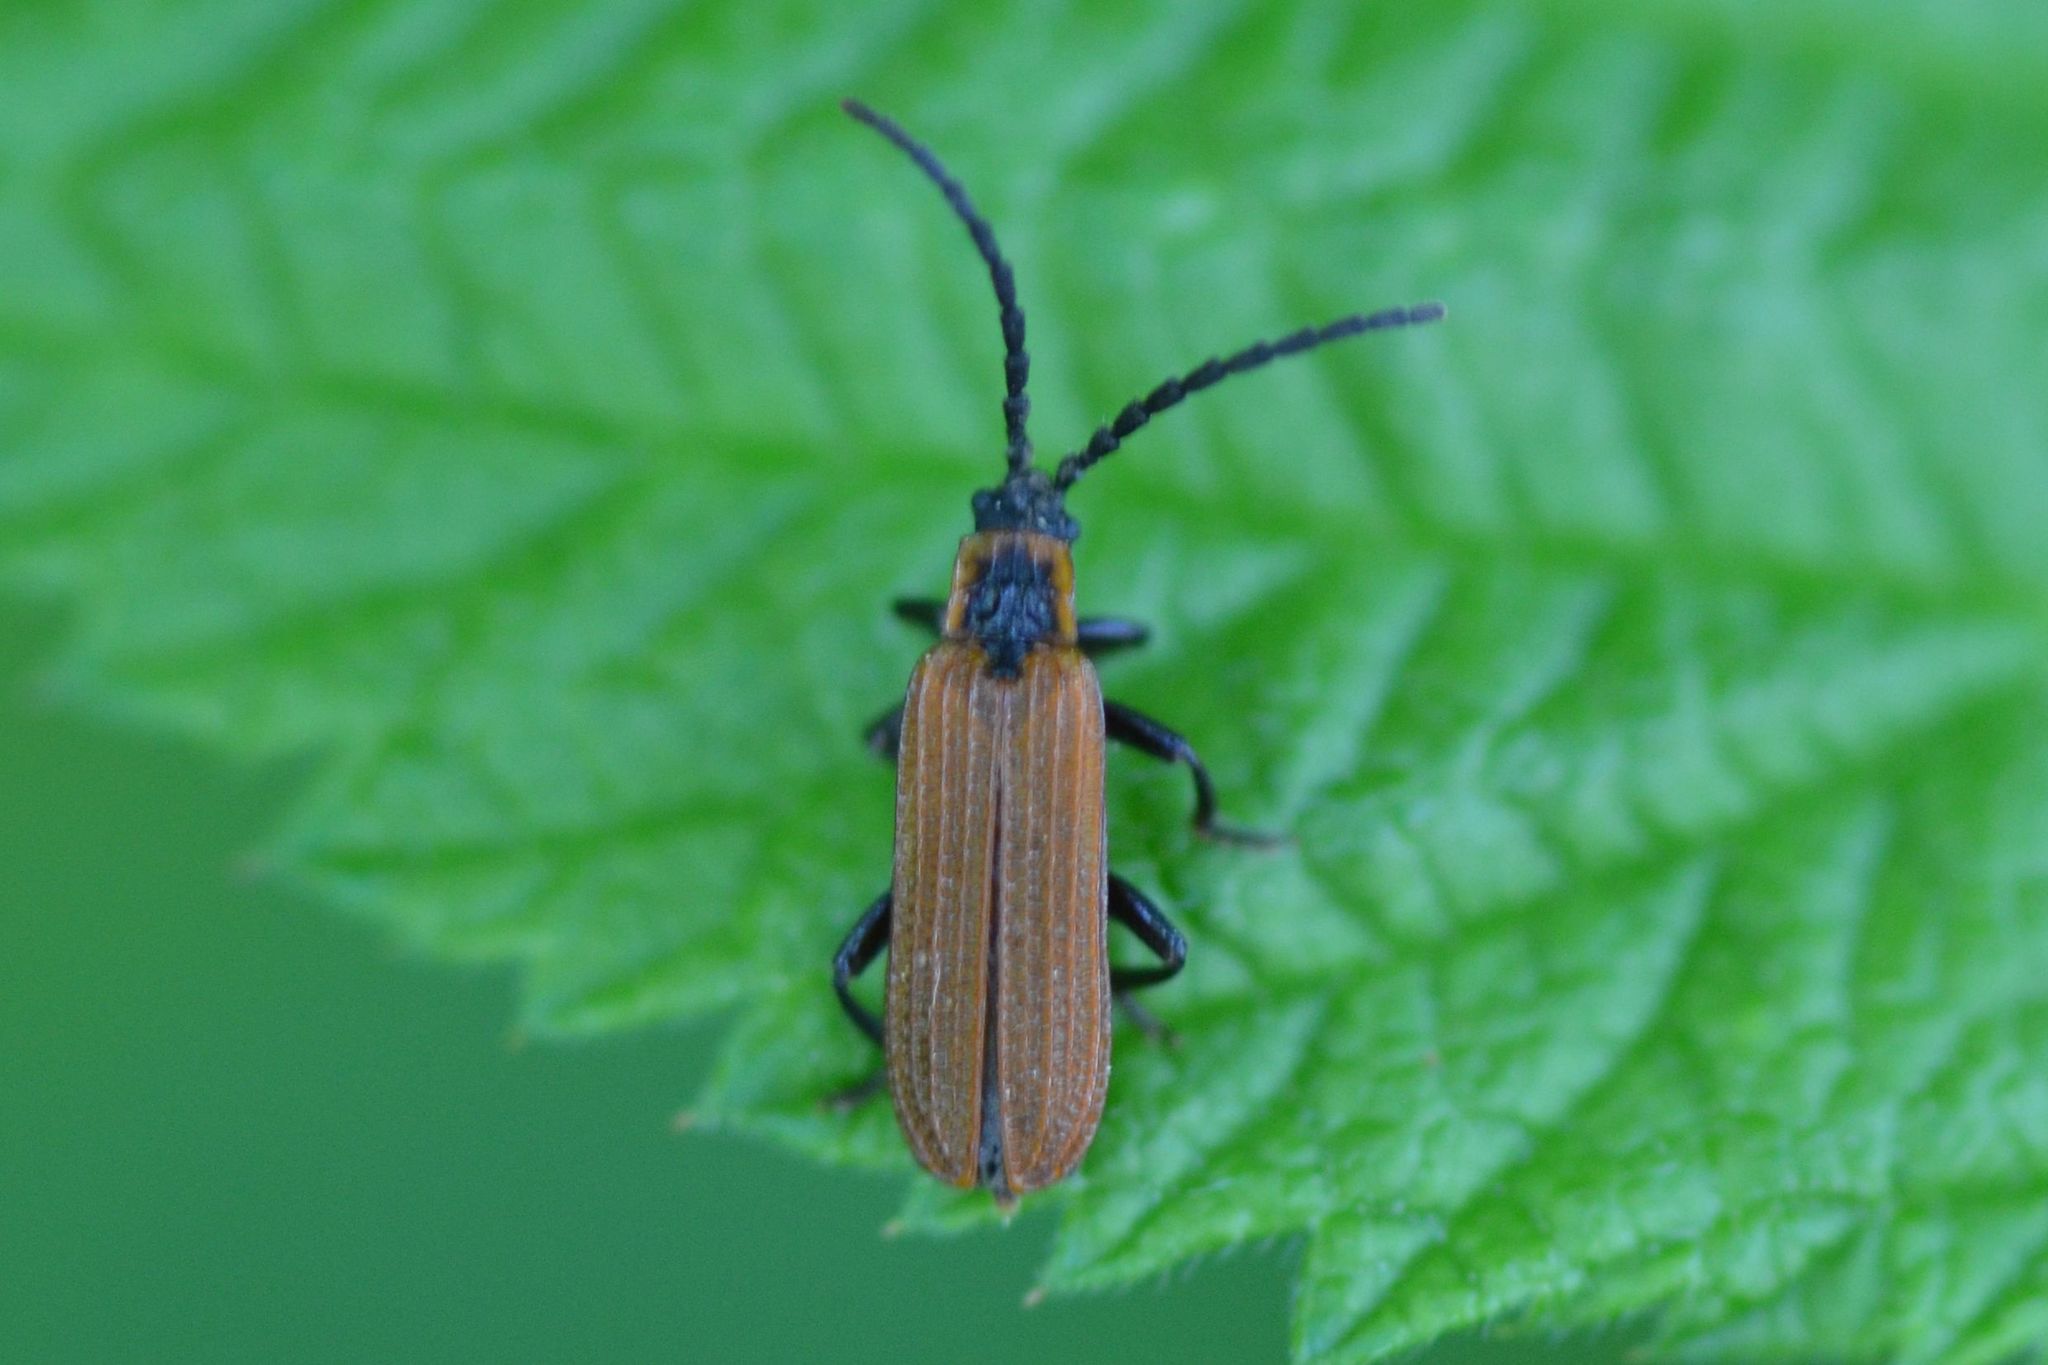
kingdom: Animalia
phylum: Arthropoda
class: Insecta
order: Coleoptera
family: Lycidae
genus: Erotides
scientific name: Erotides cosnardi
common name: Cosnard's net-winged beetle
